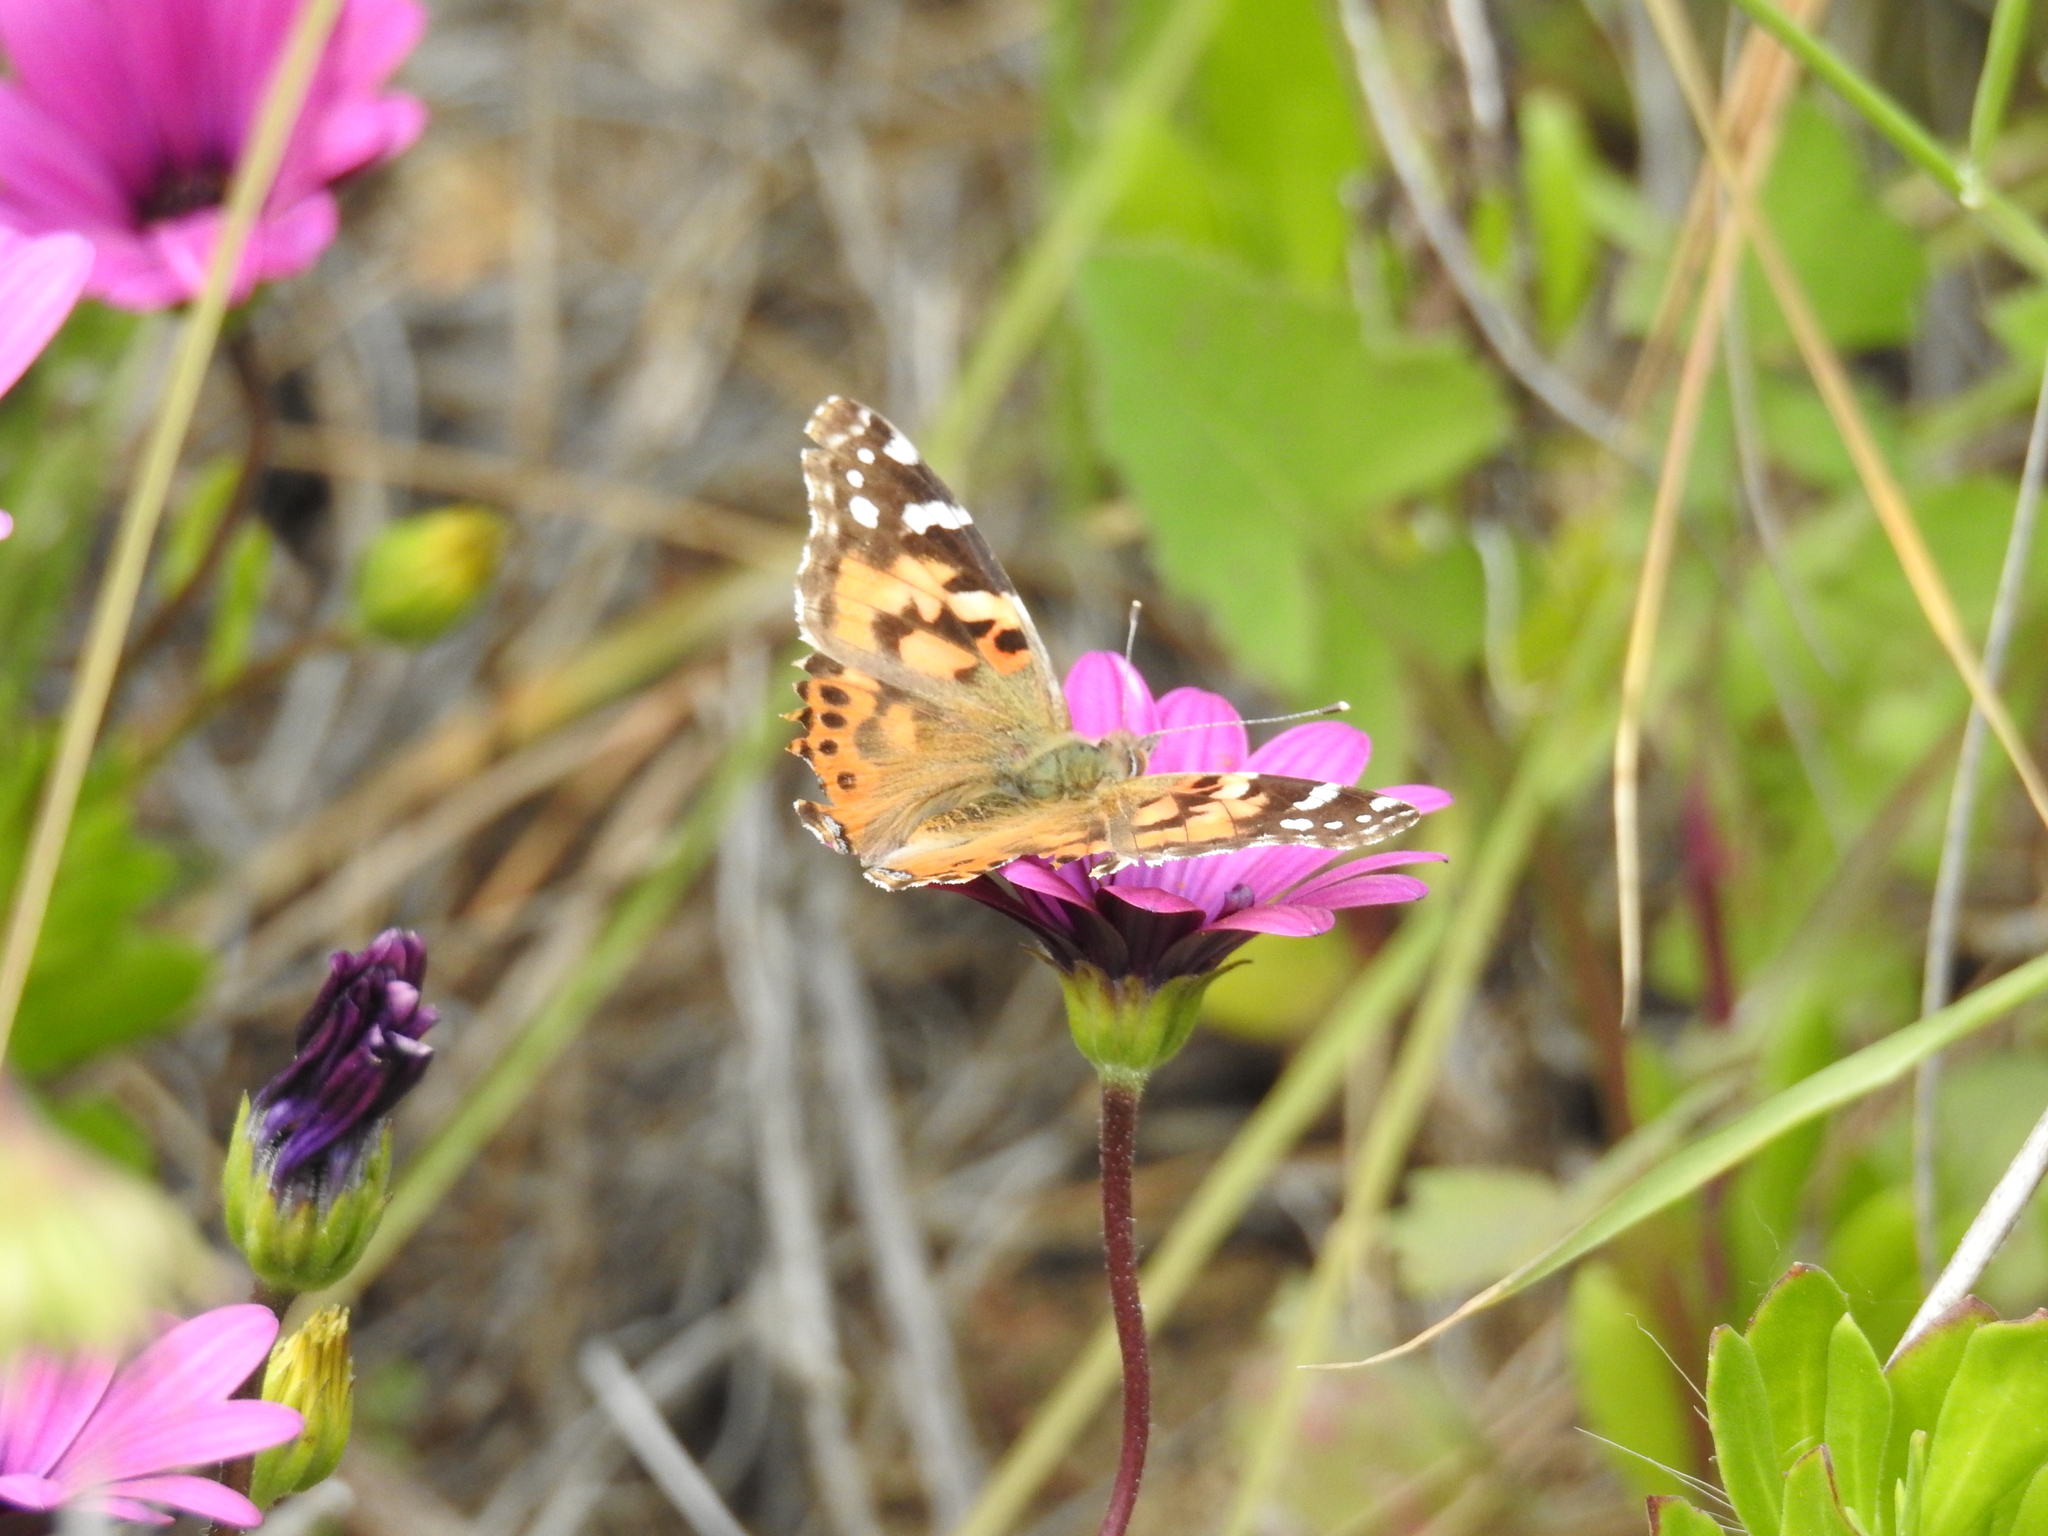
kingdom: Animalia
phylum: Arthropoda
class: Insecta
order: Lepidoptera
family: Nymphalidae
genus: Vanessa
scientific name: Vanessa cardui
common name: Painted lady
